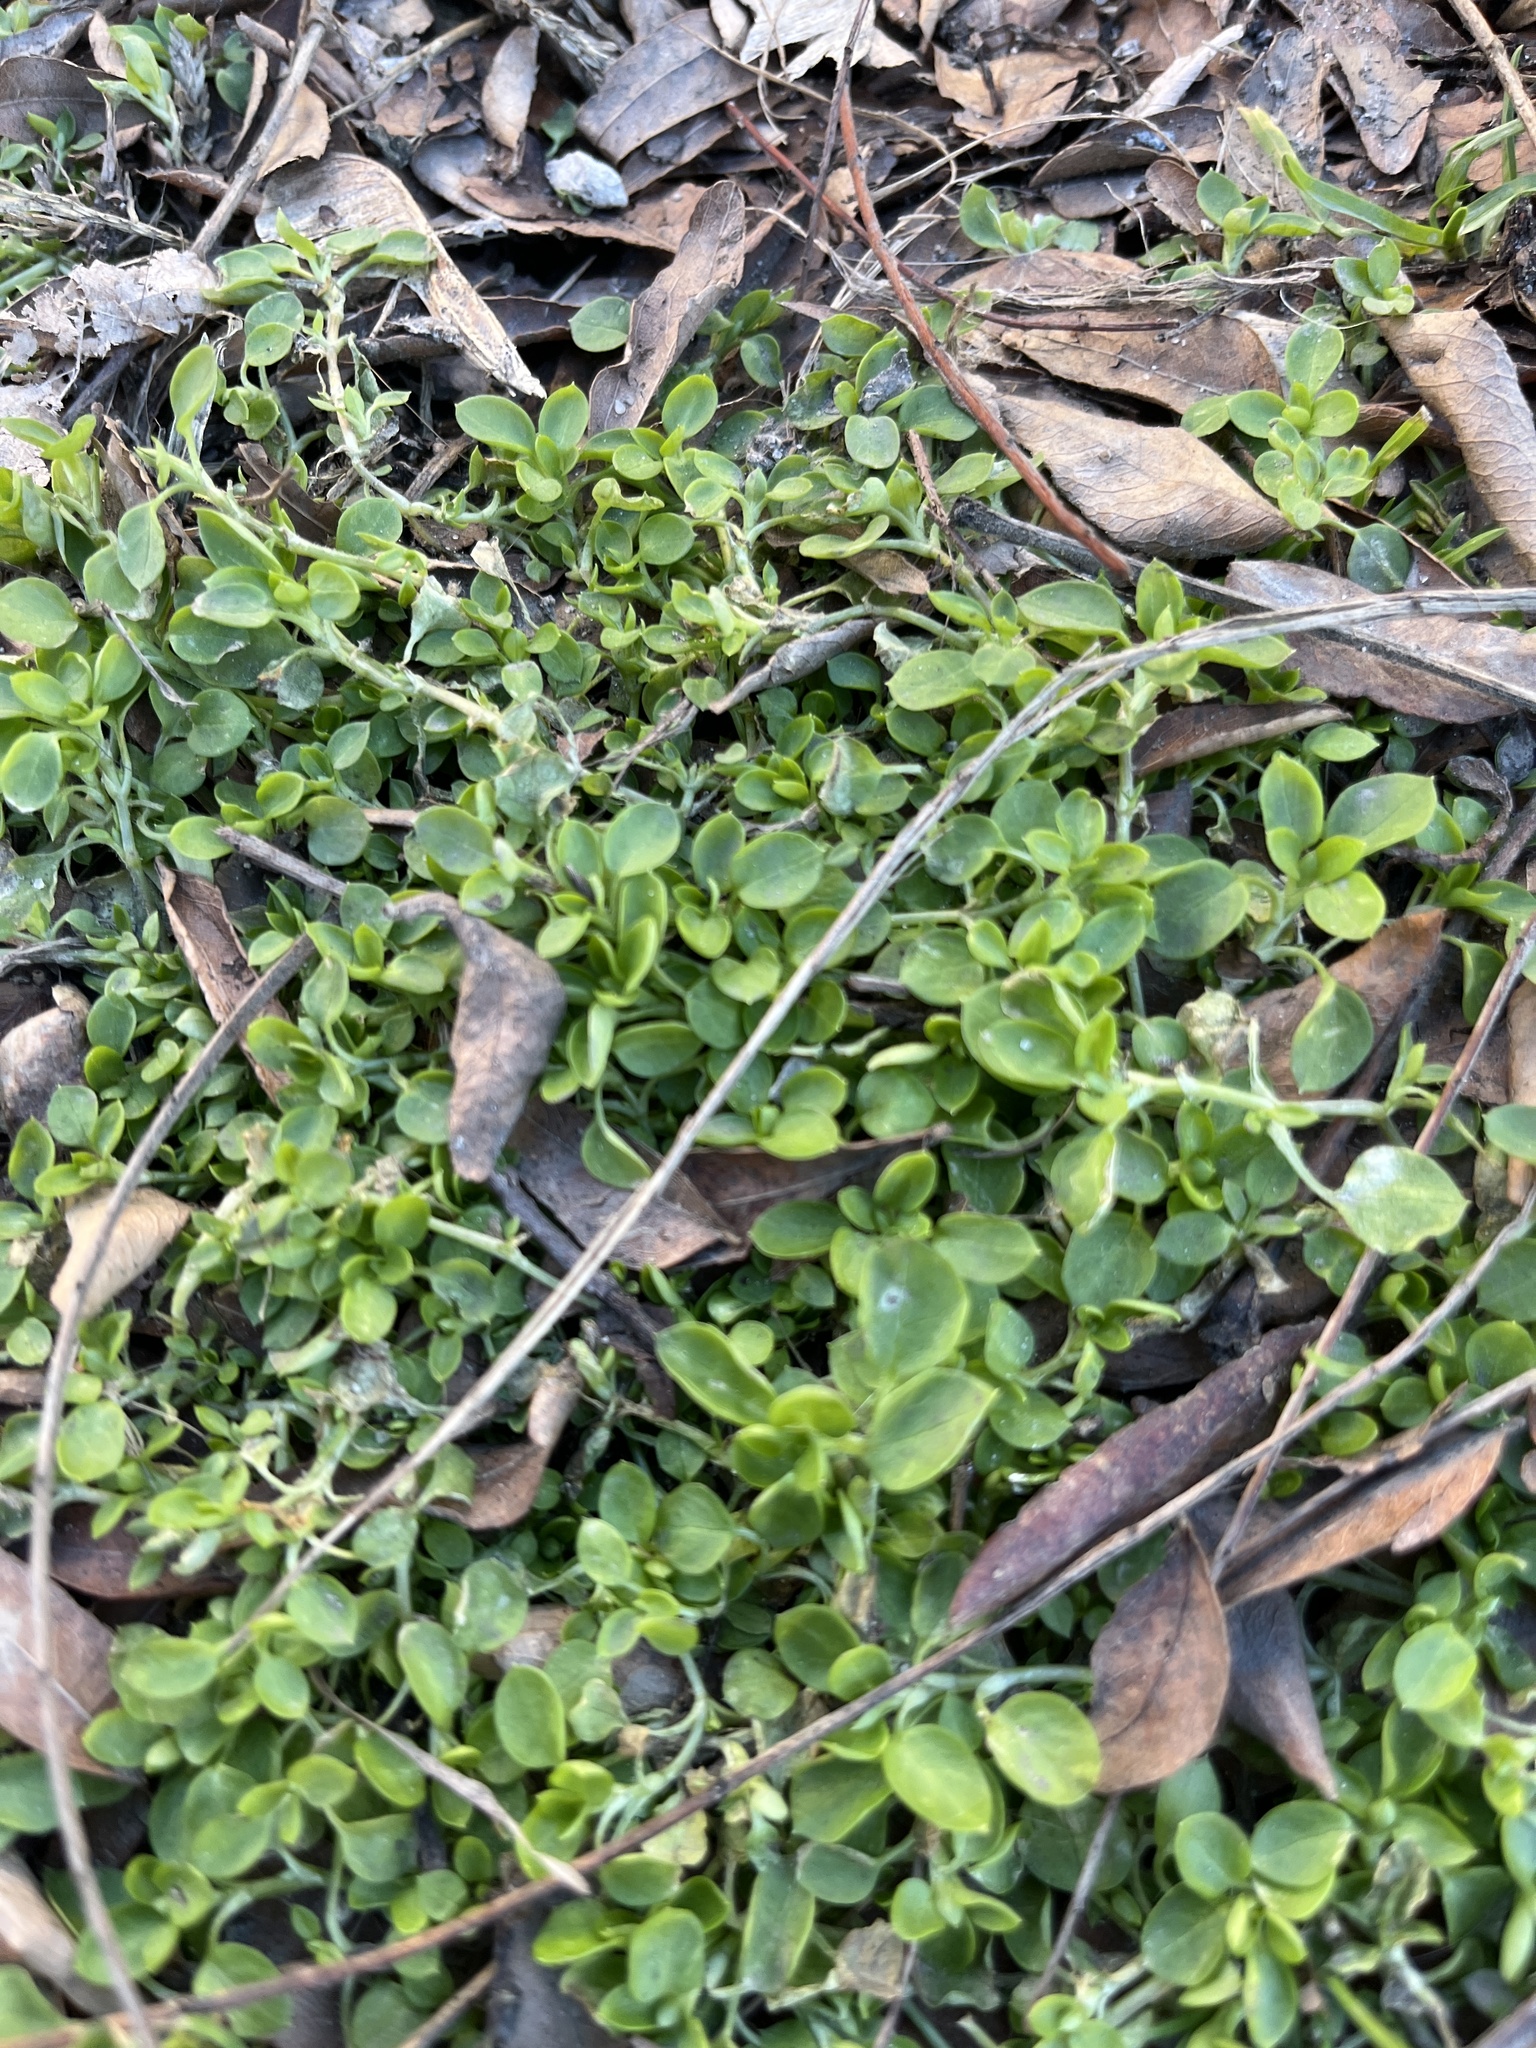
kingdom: Plantae
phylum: Tracheophyta
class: Magnoliopsida
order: Caryophyllales
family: Caryophyllaceae
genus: Stellaria
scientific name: Stellaria media
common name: Common chickweed
